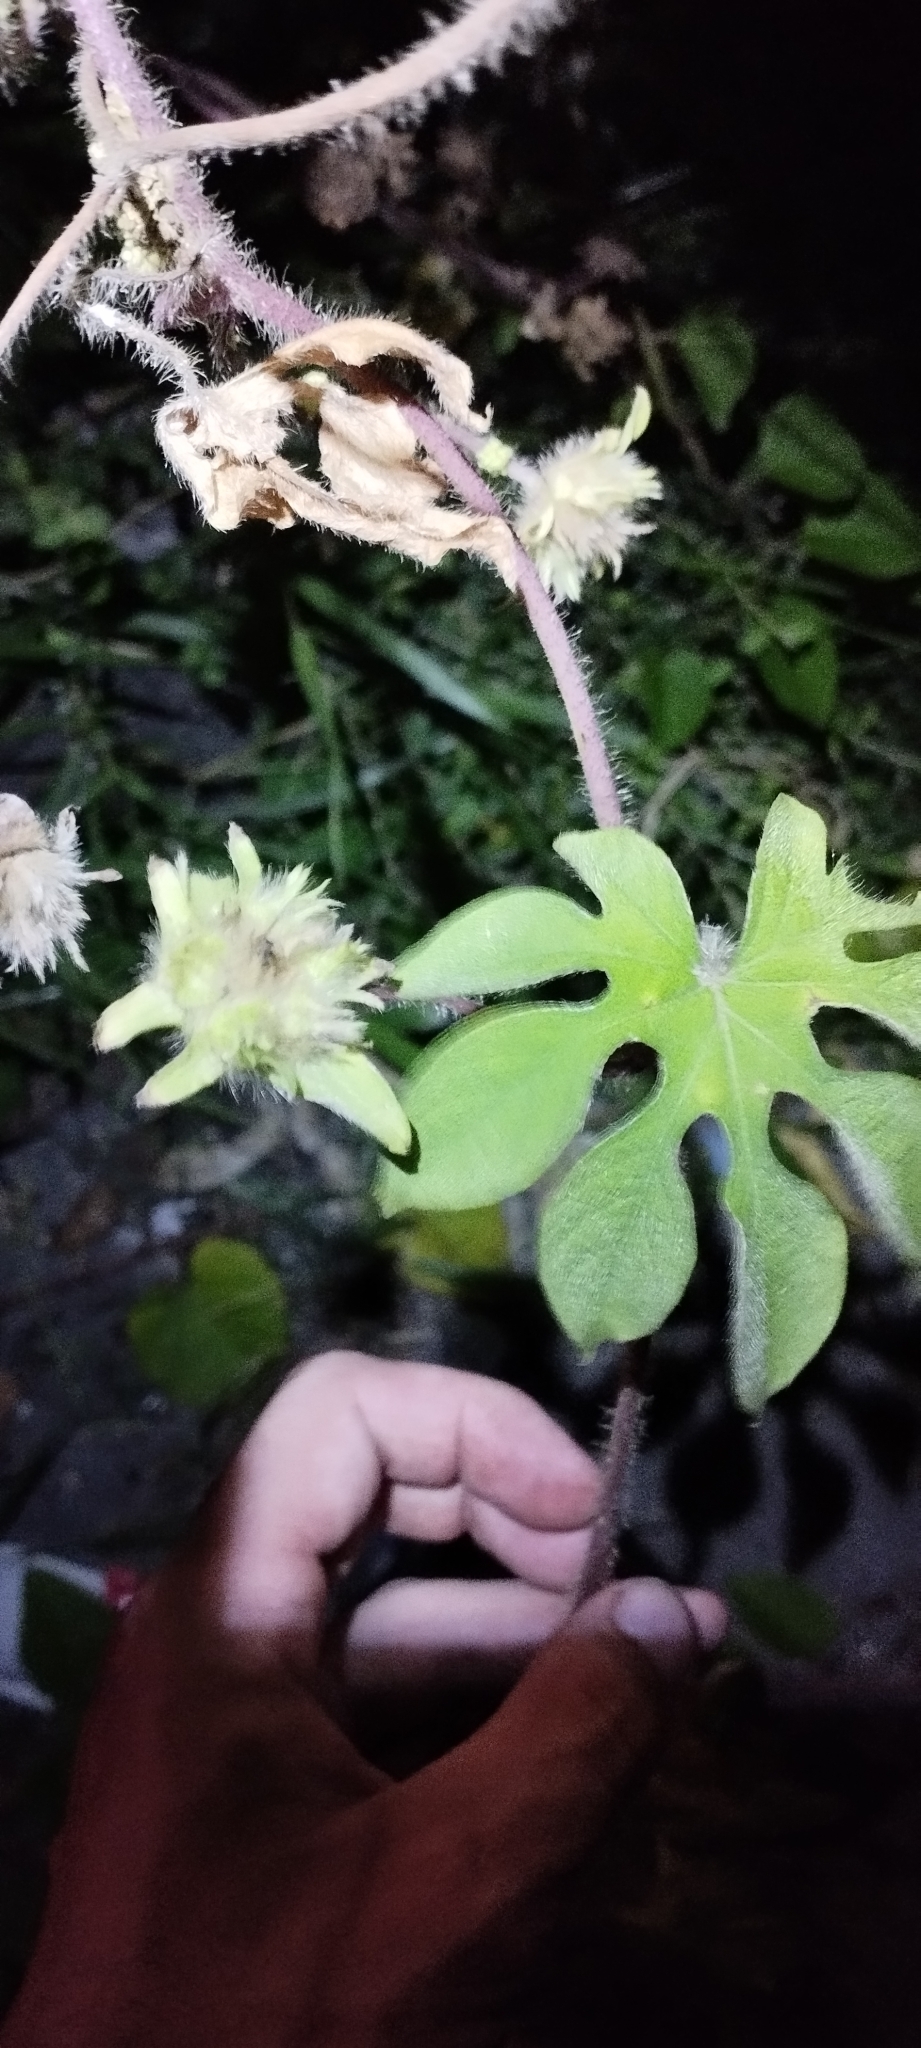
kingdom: Plantae
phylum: Tracheophyta
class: Magnoliopsida
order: Solanales
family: Convolvulaceae
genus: Ipomoea
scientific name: Ipomoea pes-tigridis
